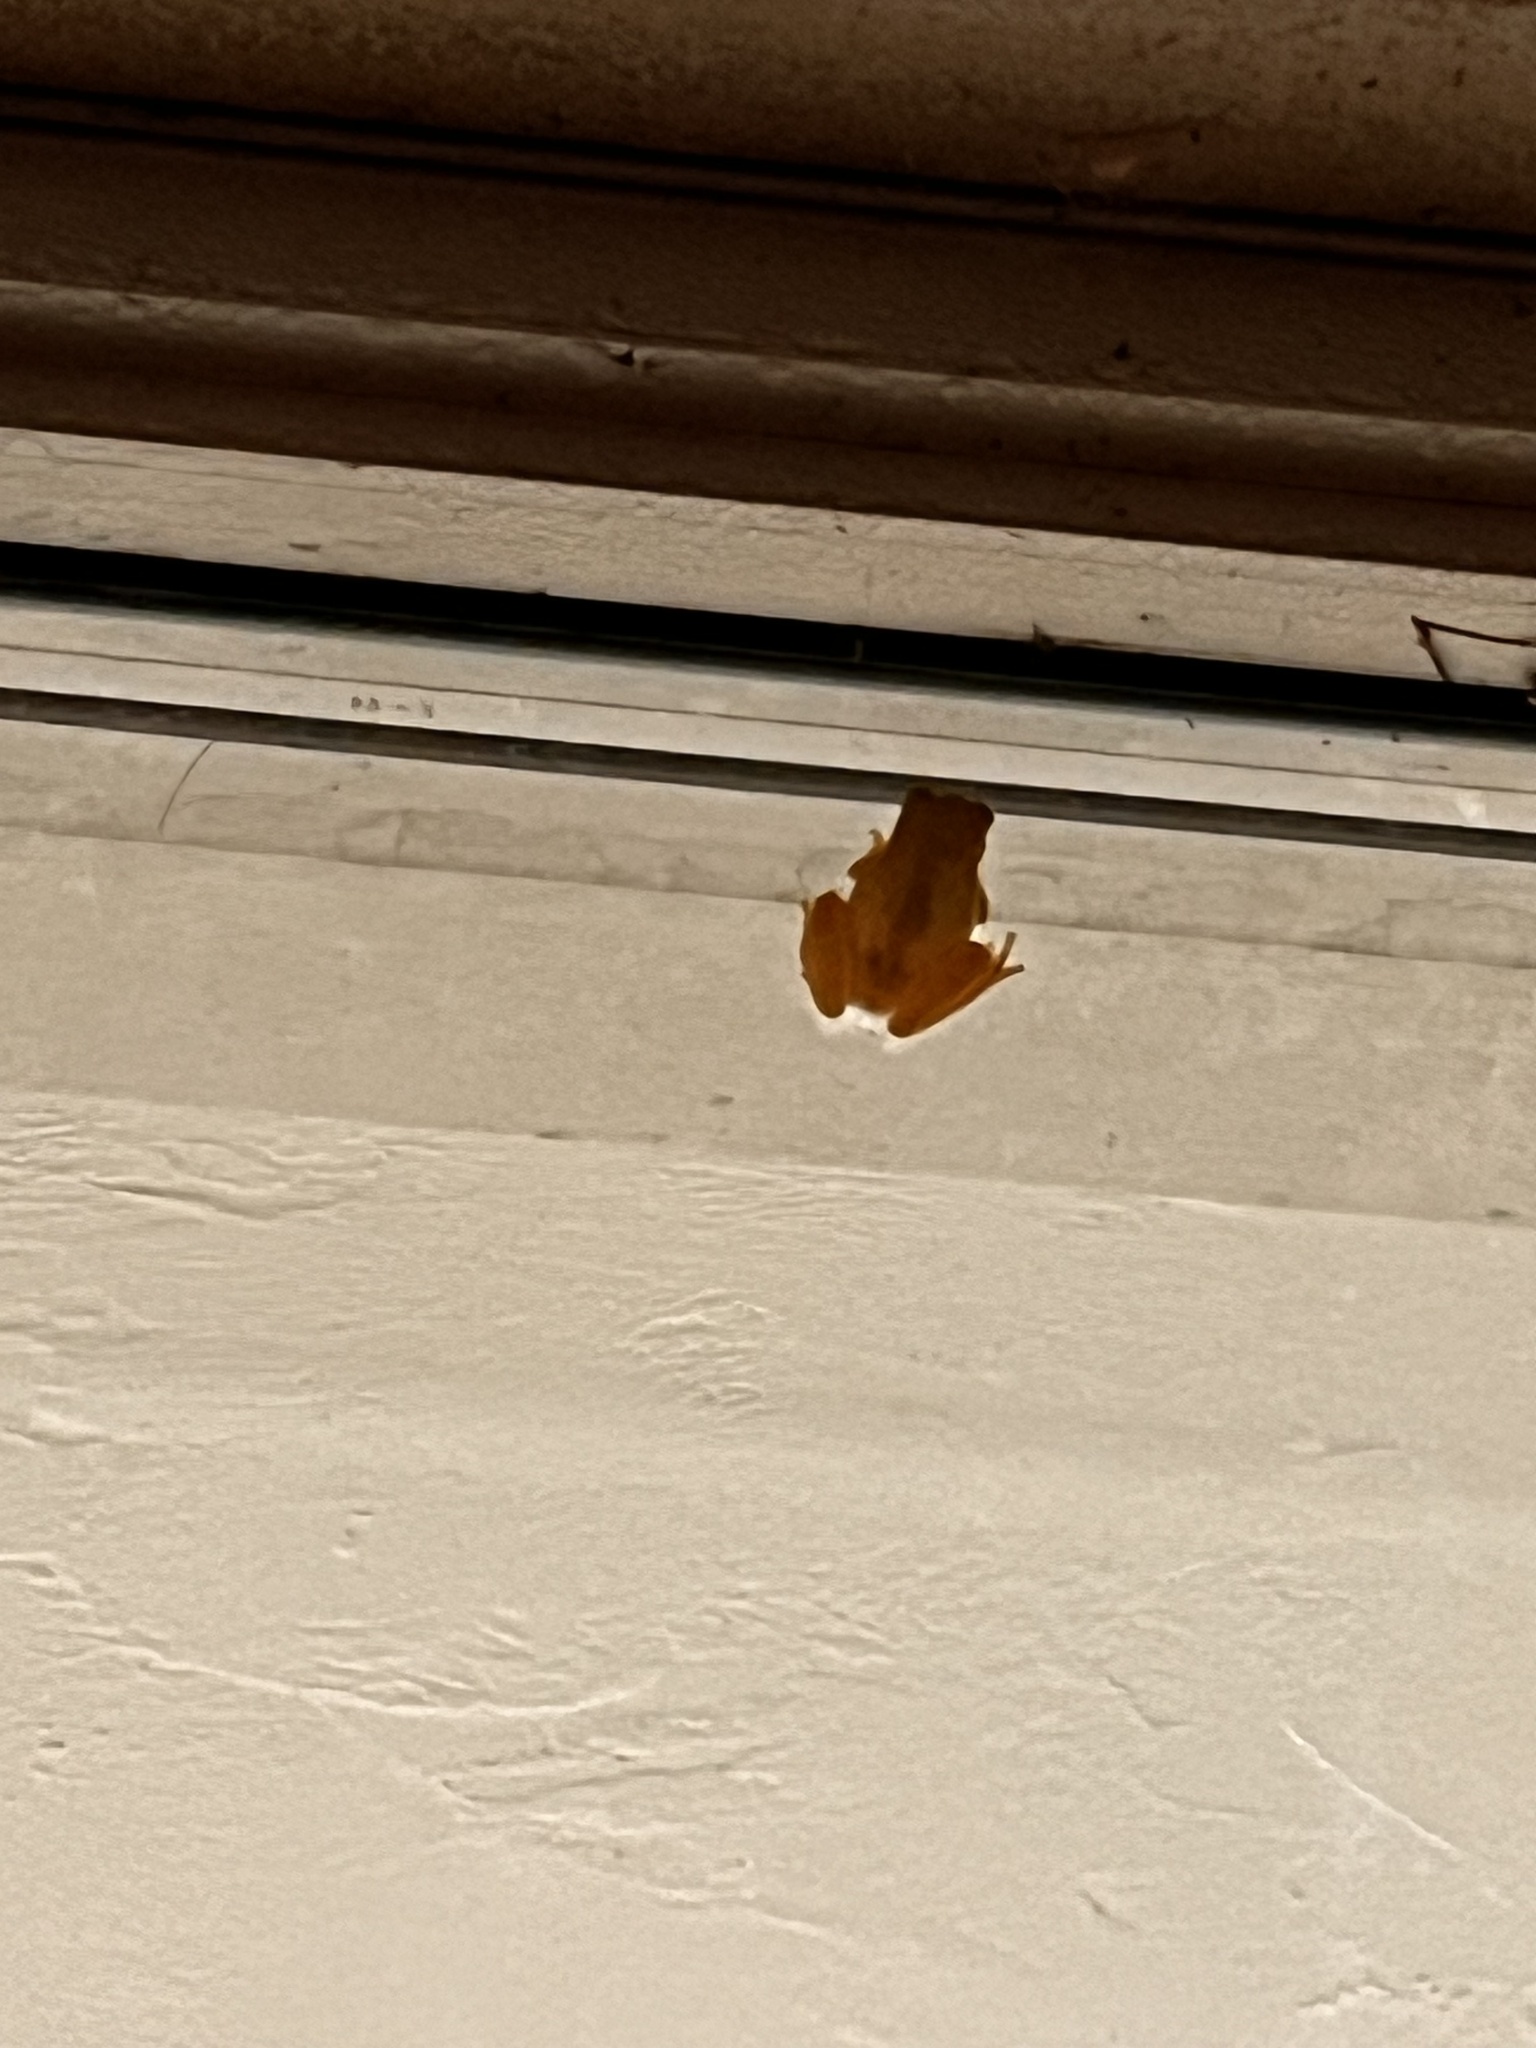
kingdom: Animalia
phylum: Chordata
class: Amphibia
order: Anura
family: Hylidae
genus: Pseudacris
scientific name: Pseudacris crucifer
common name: Spring peeper
